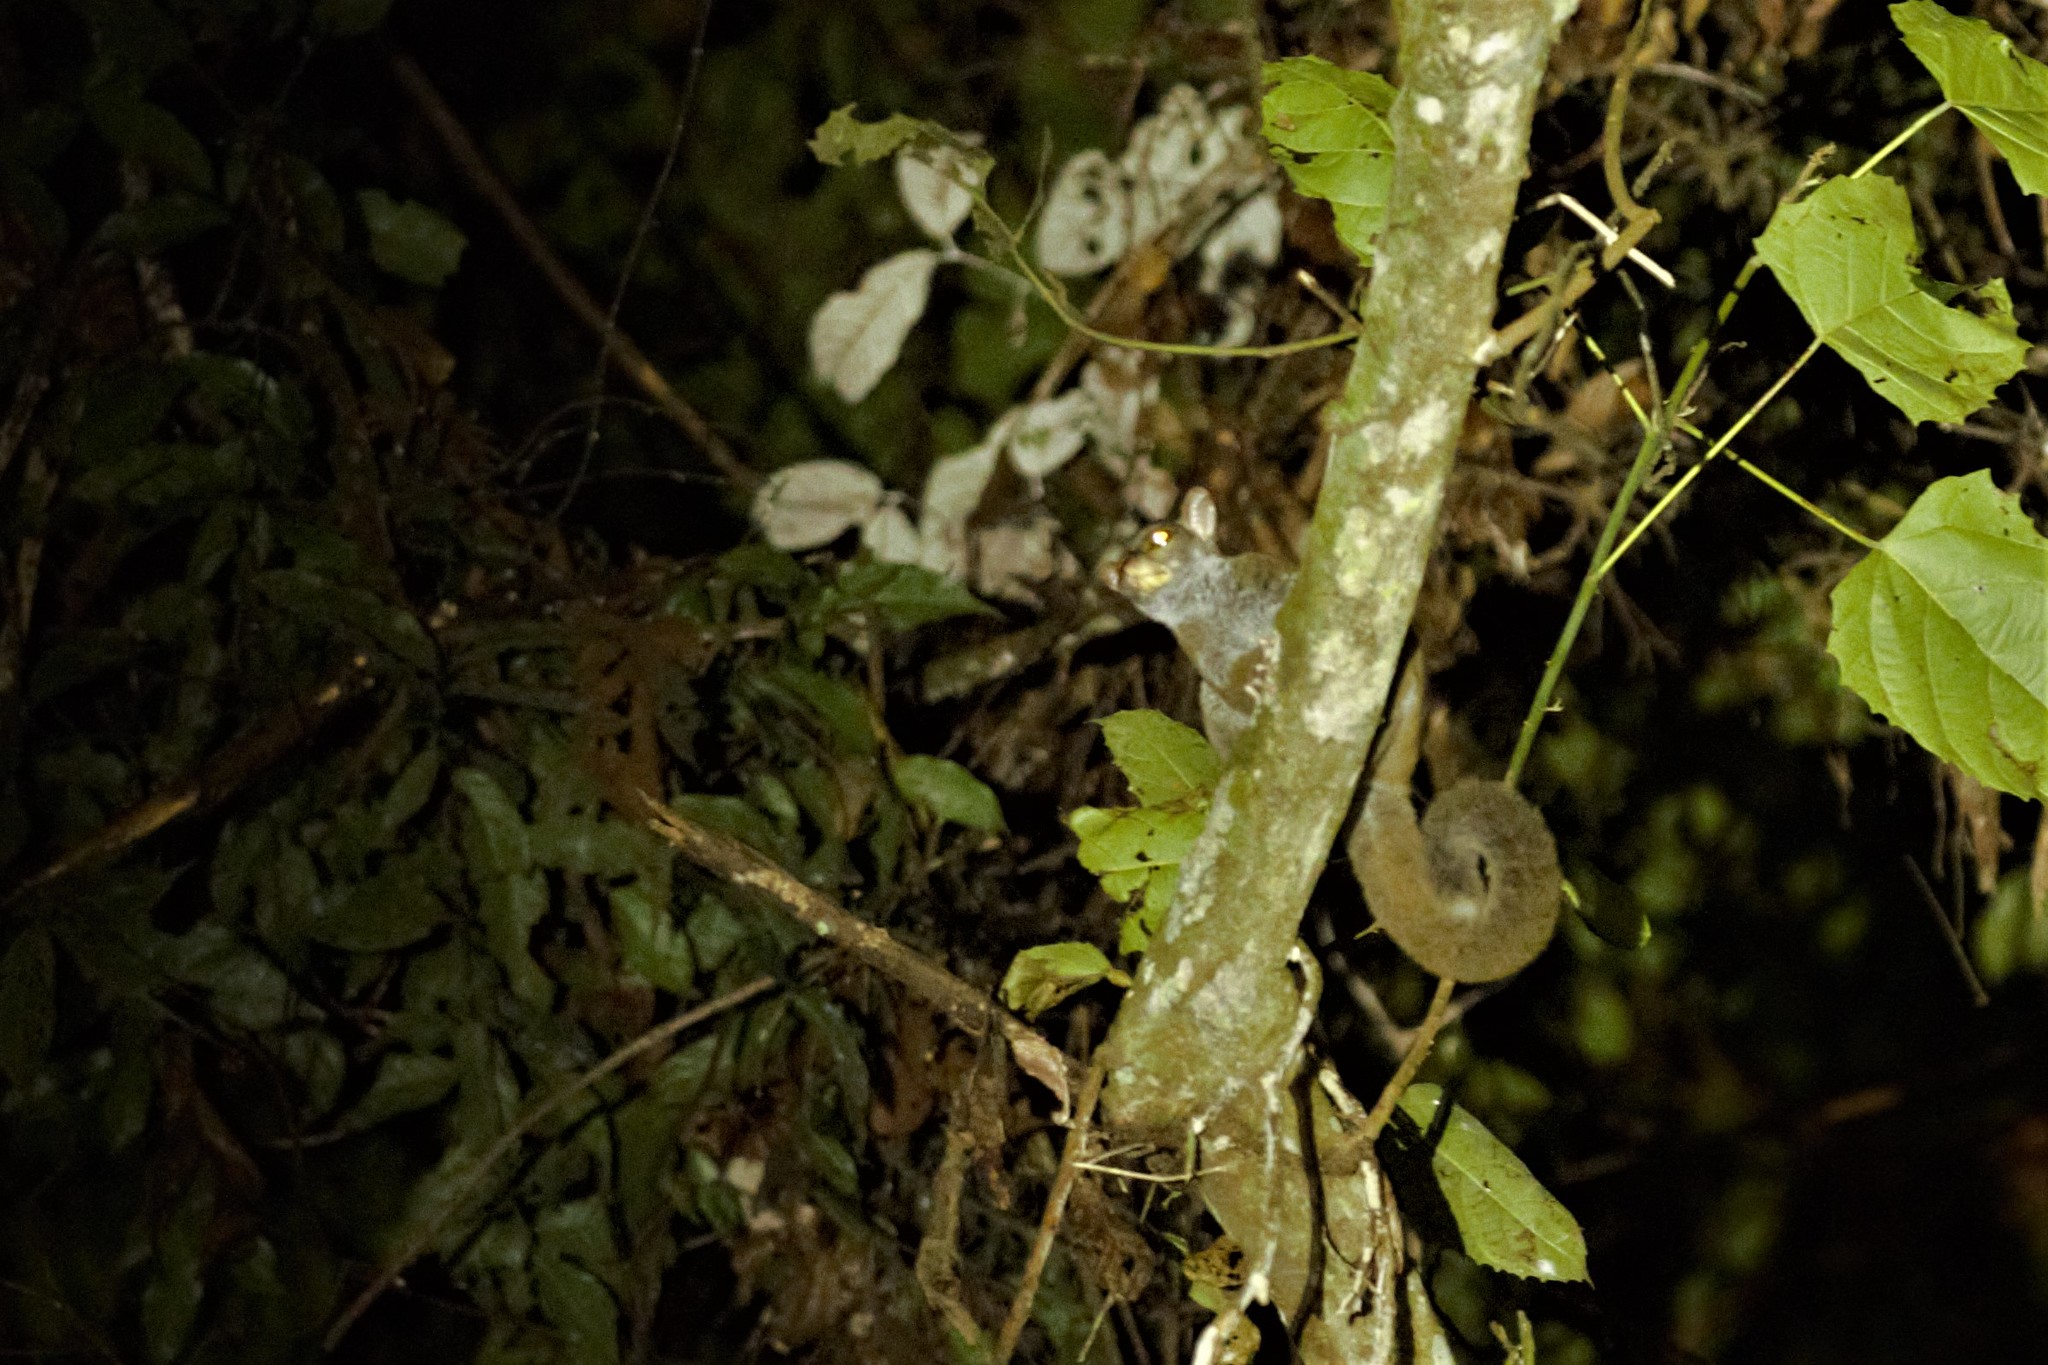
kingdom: Animalia
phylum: Chordata
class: Mammalia
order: Primates
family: Galagidae
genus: Euoticus
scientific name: Euoticus elegantulus
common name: Southern needle-clawed bushbaby
